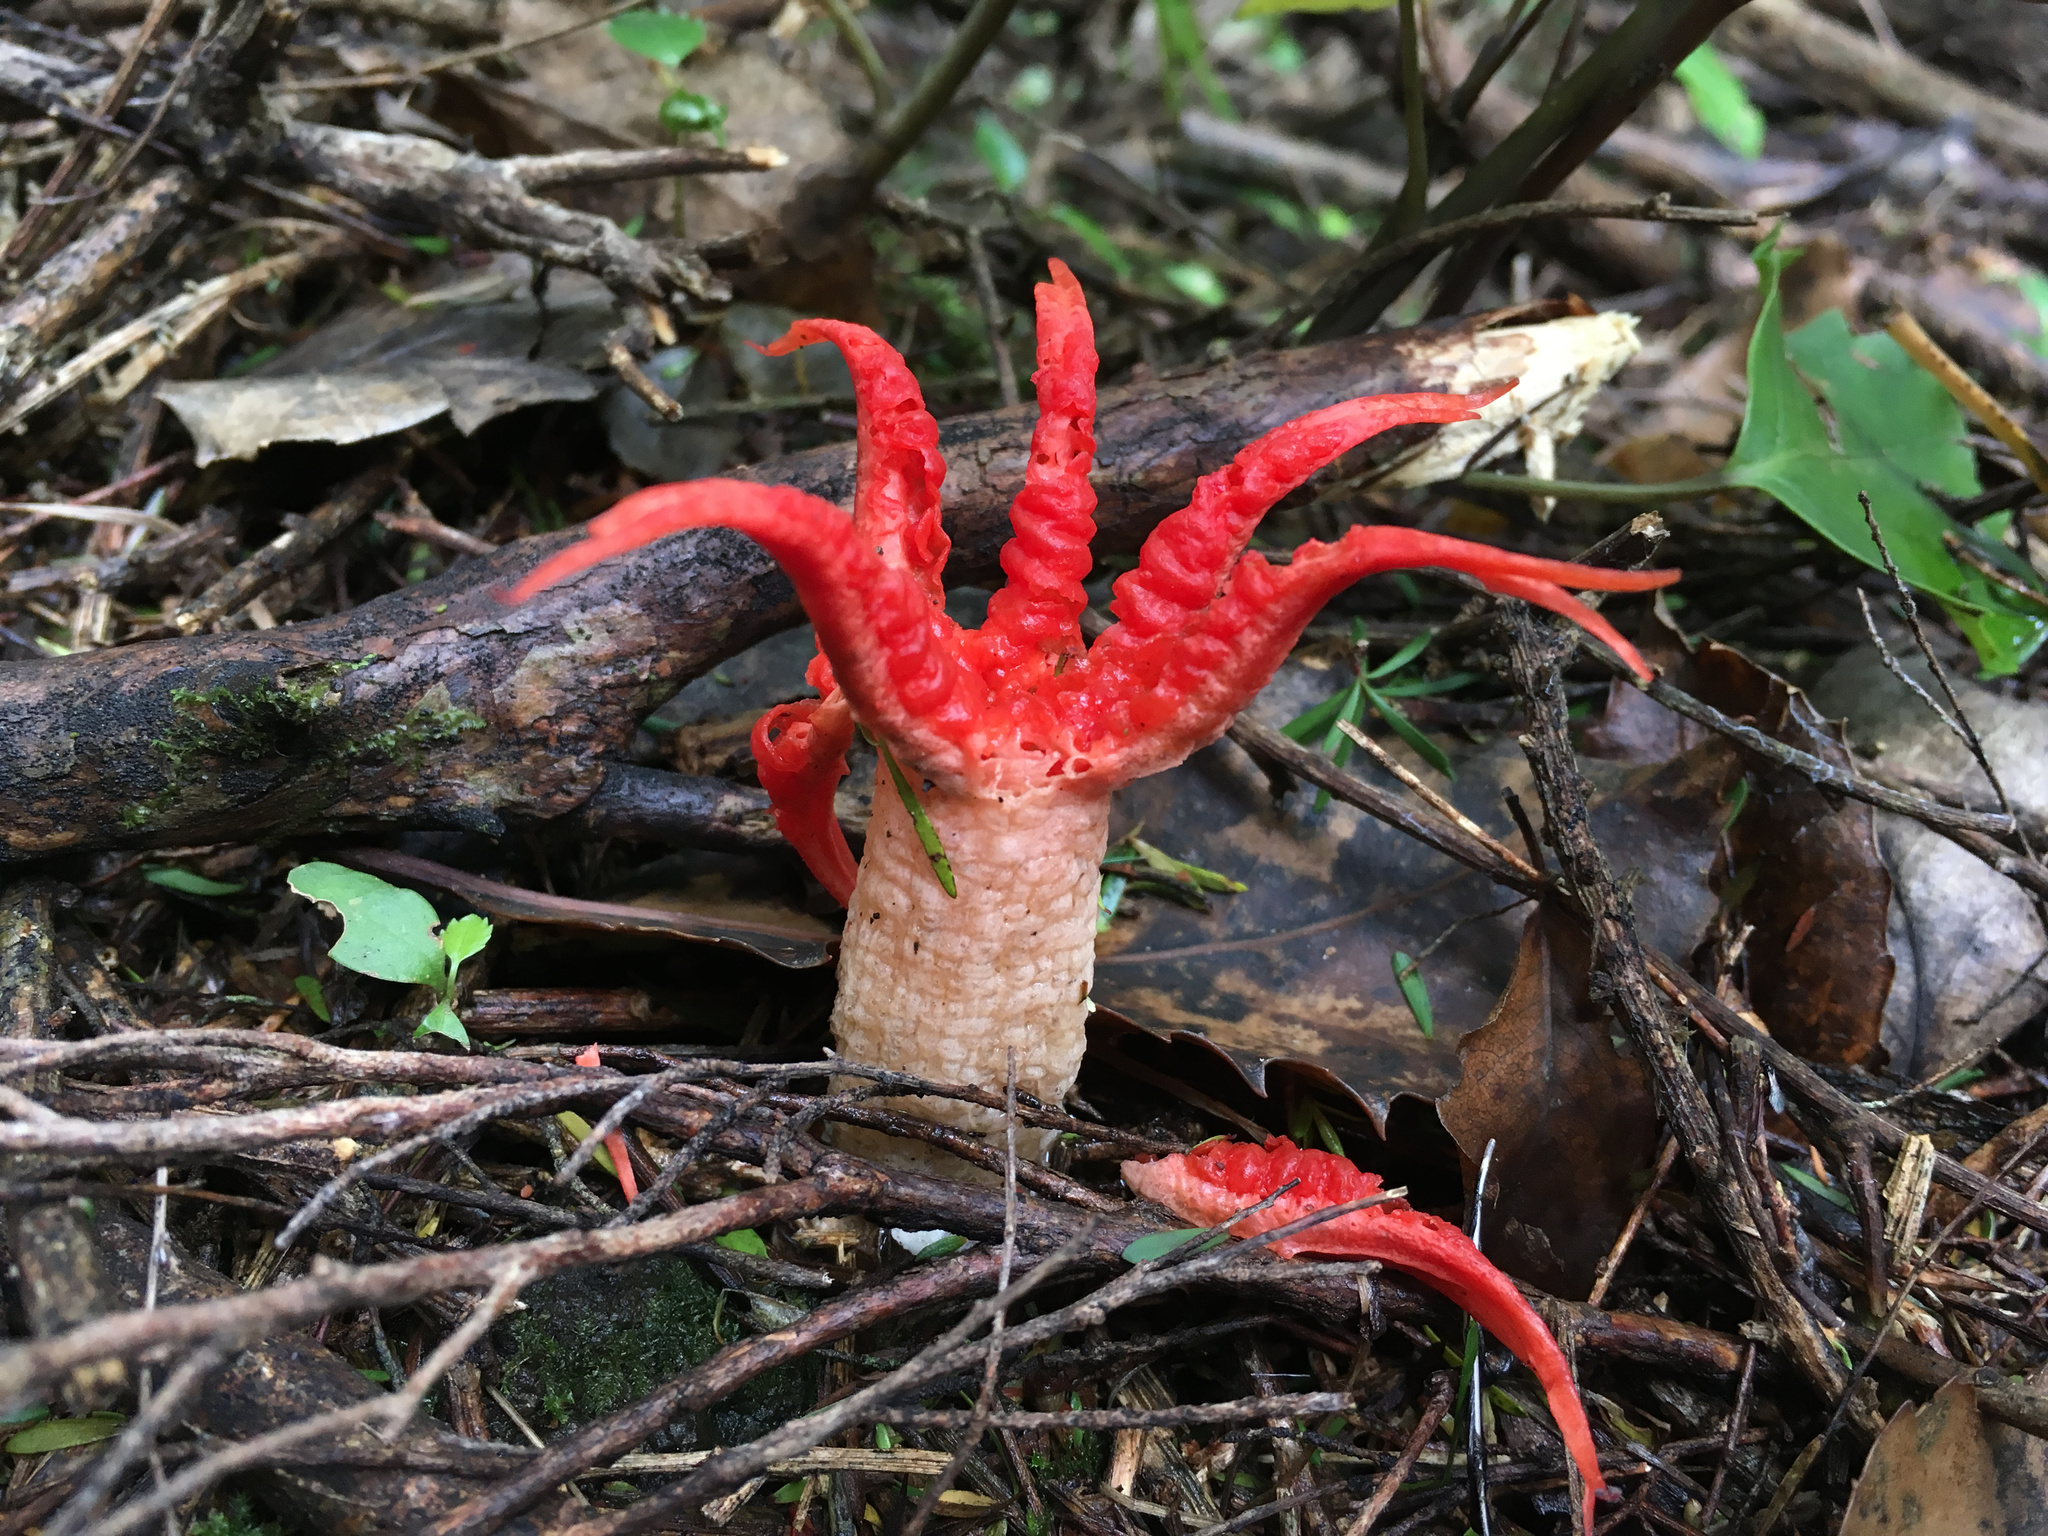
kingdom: Fungi
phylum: Basidiomycota
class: Agaricomycetes
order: Phallales
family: Phallaceae
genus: Aseroe
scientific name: Aseroe rubra
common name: Starfish fungus
